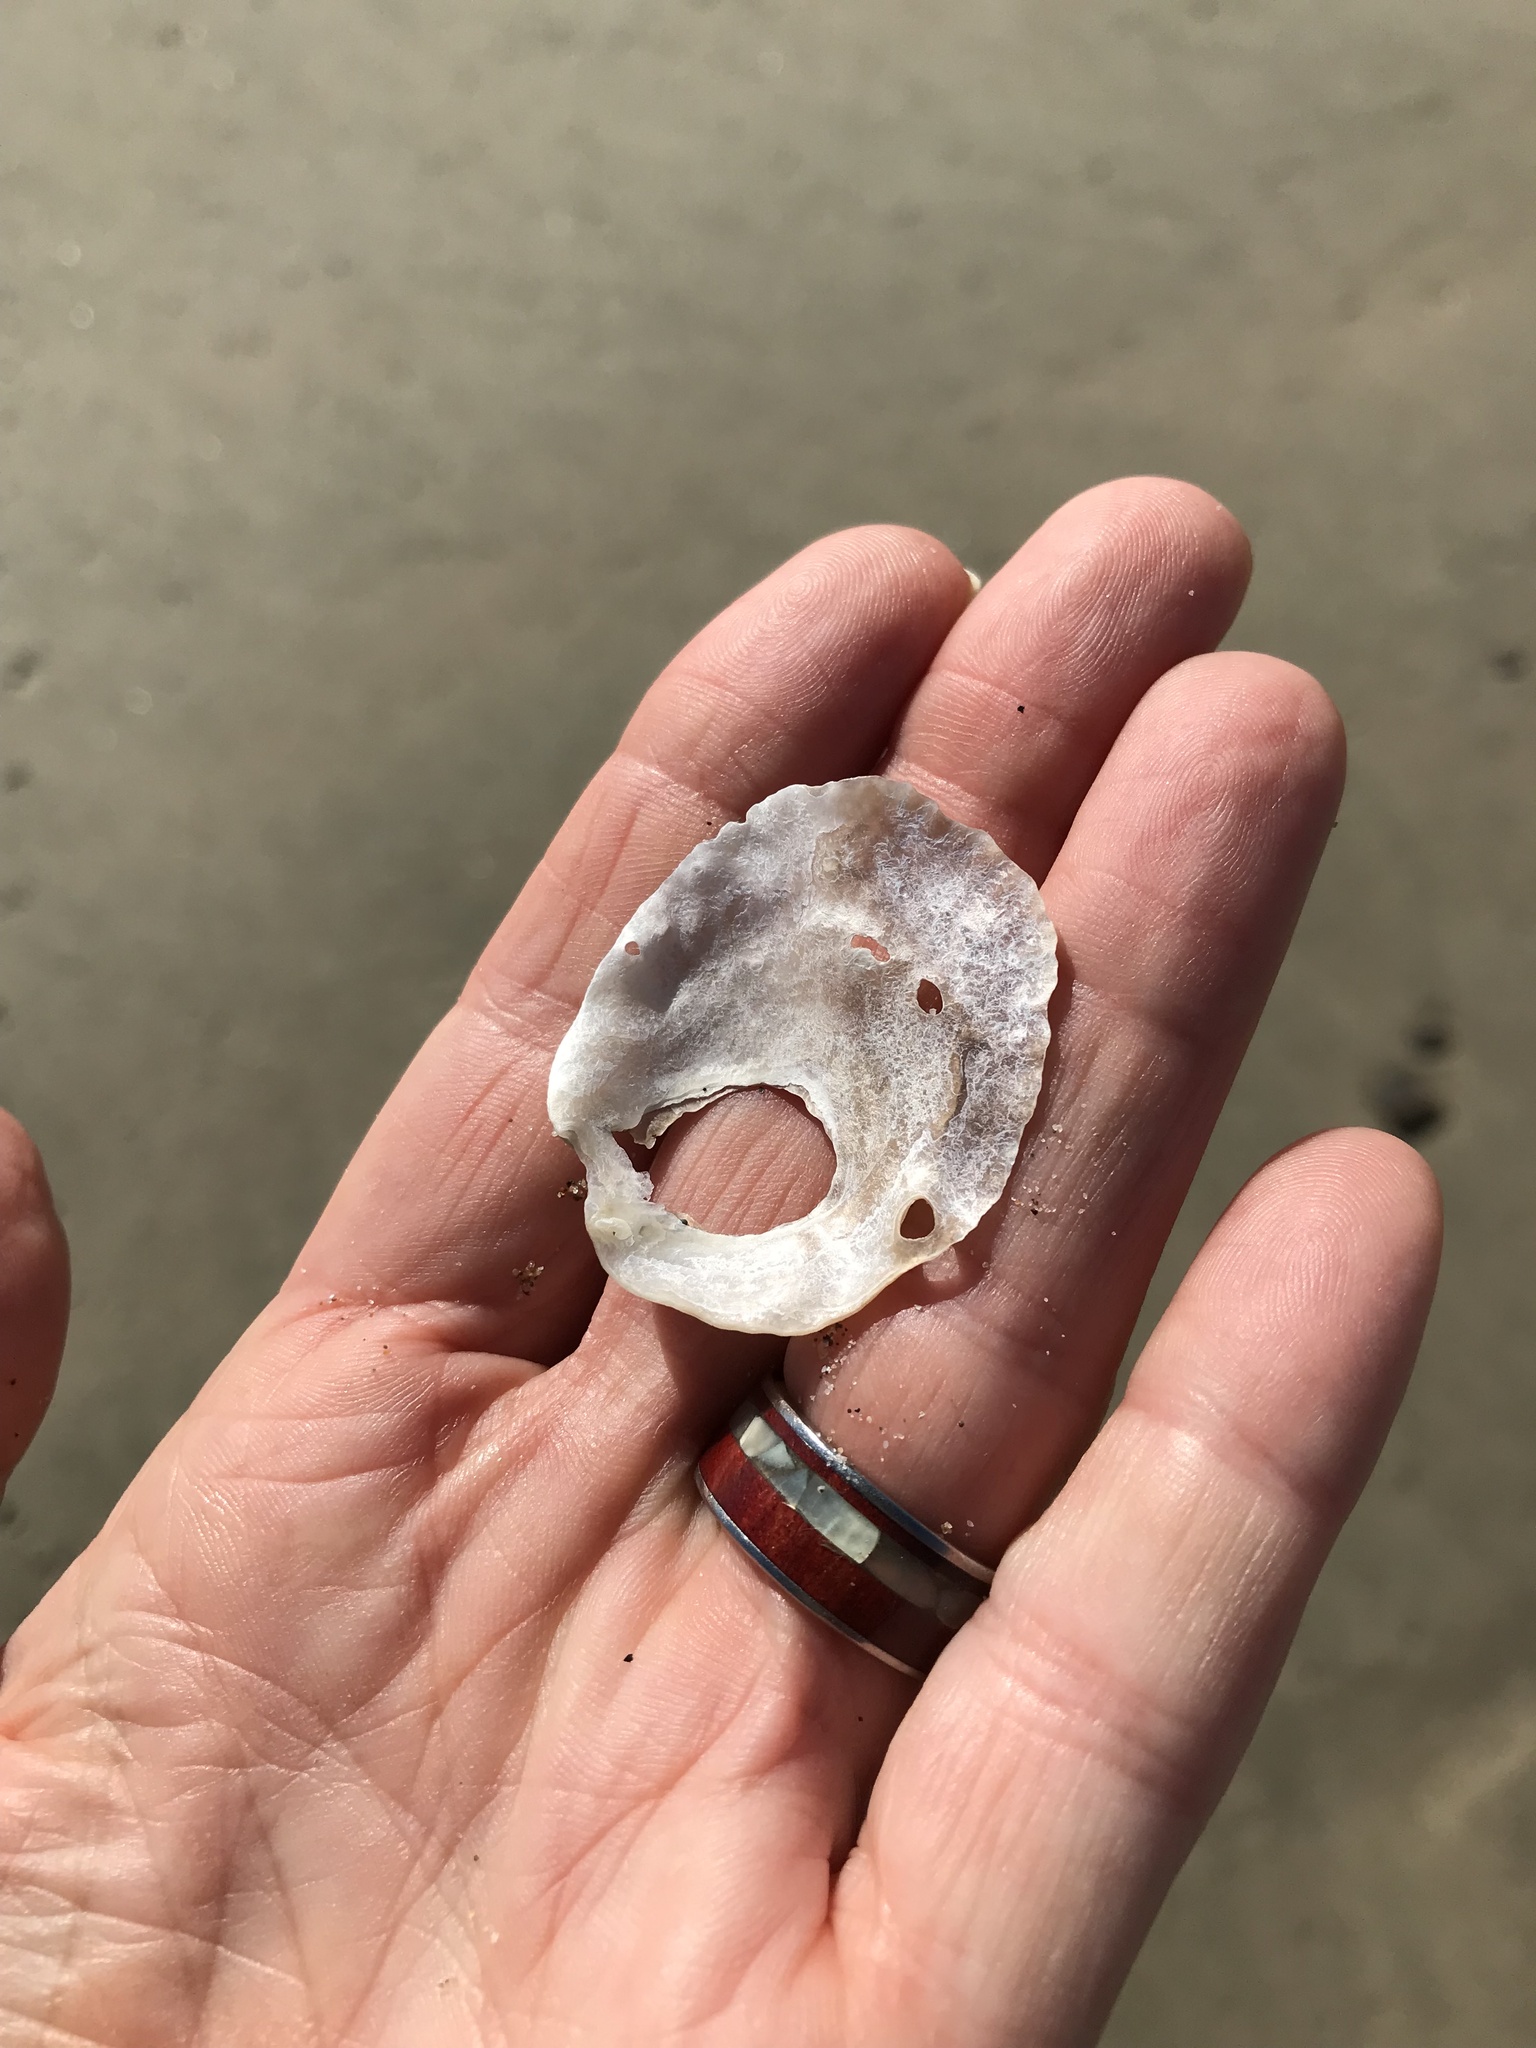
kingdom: Animalia
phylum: Mollusca
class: Bivalvia
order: Pectinida
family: Anomiidae
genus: Pododesmus
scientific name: Pododesmus macrochisma
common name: Alaska jingle
